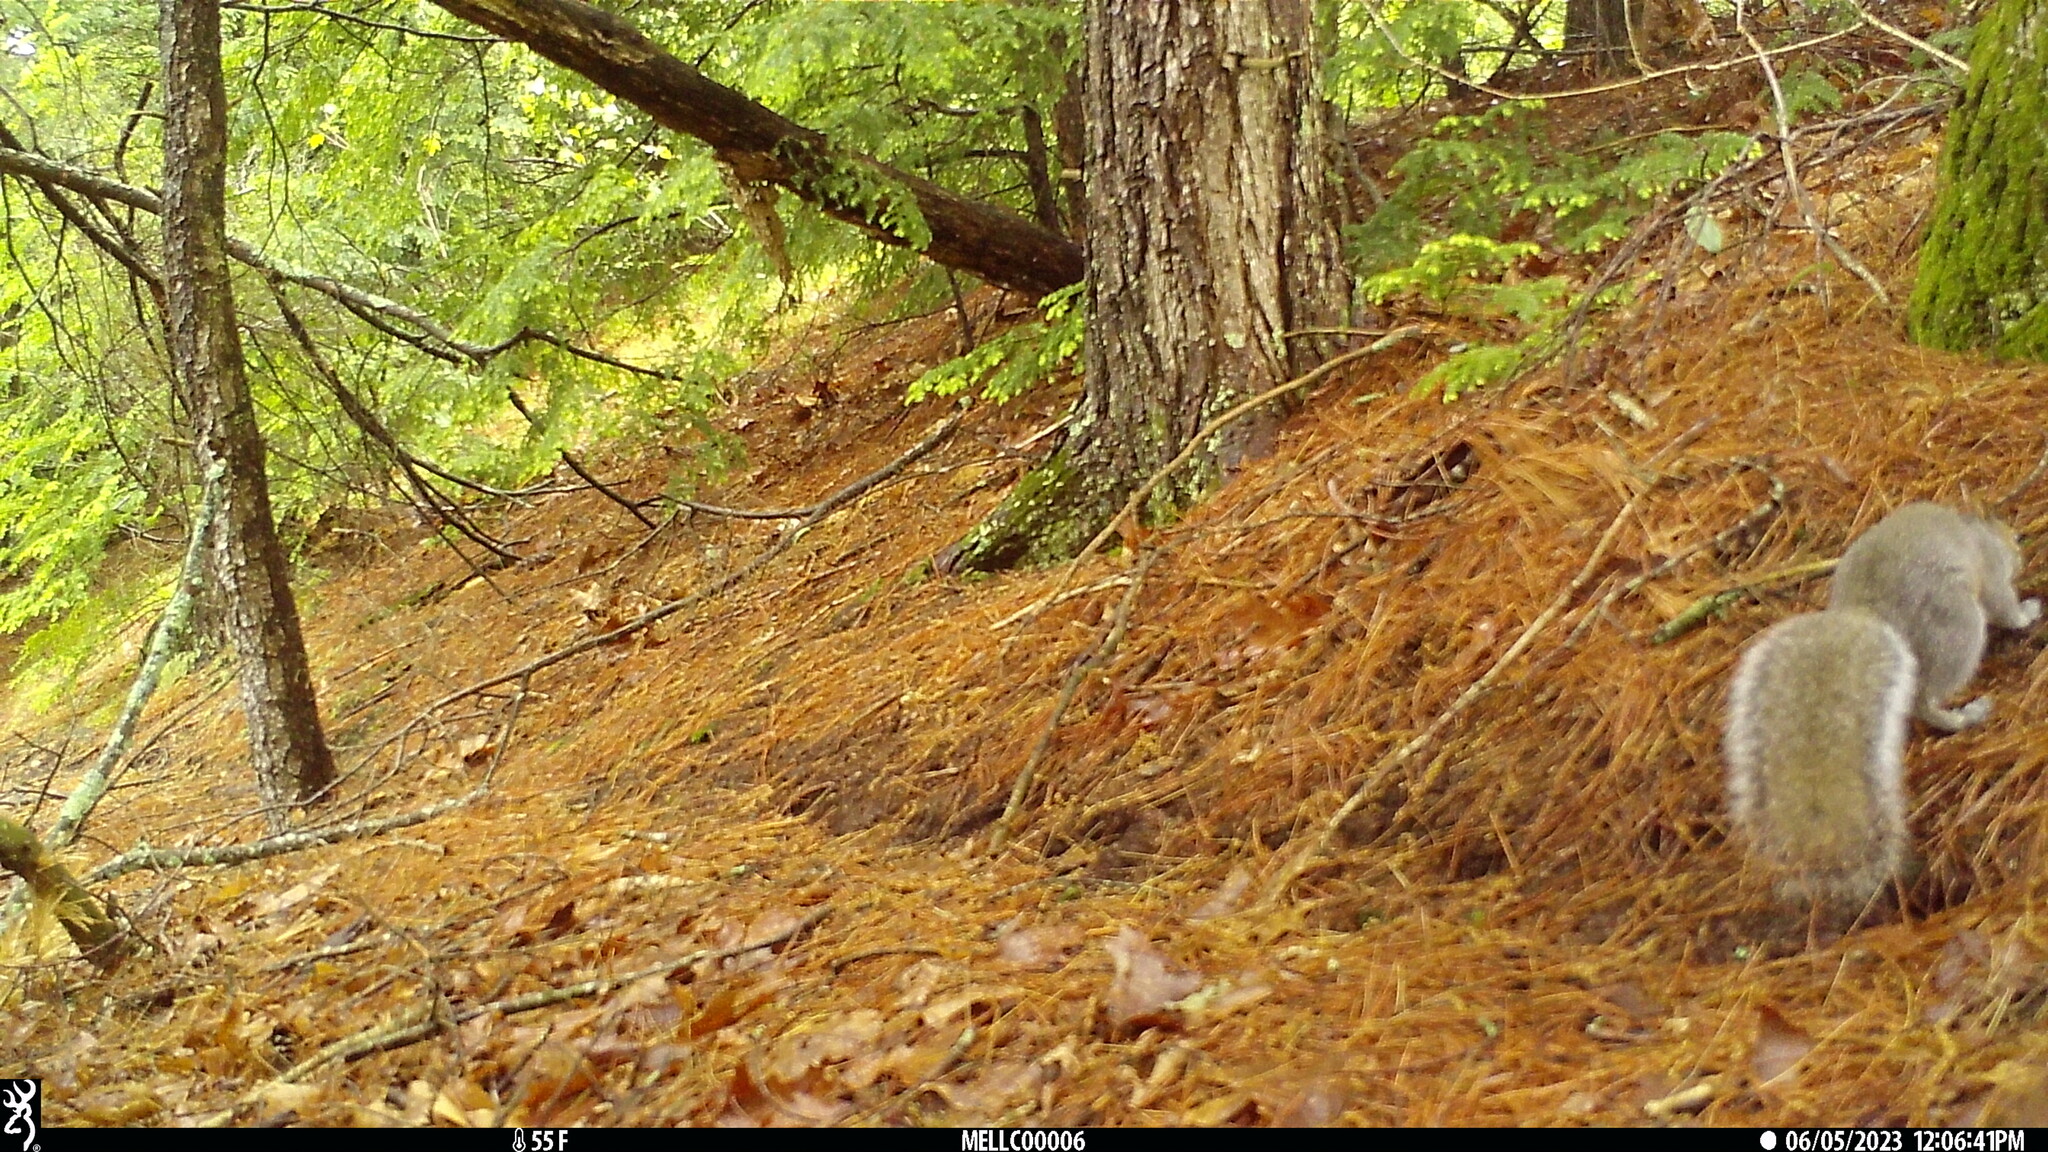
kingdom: Animalia
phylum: Chordata
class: Mammalia
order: Rodentia
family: Sciuridae
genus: Sciurus
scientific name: Sciurus carolinensis
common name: Eastern gray squirrel
